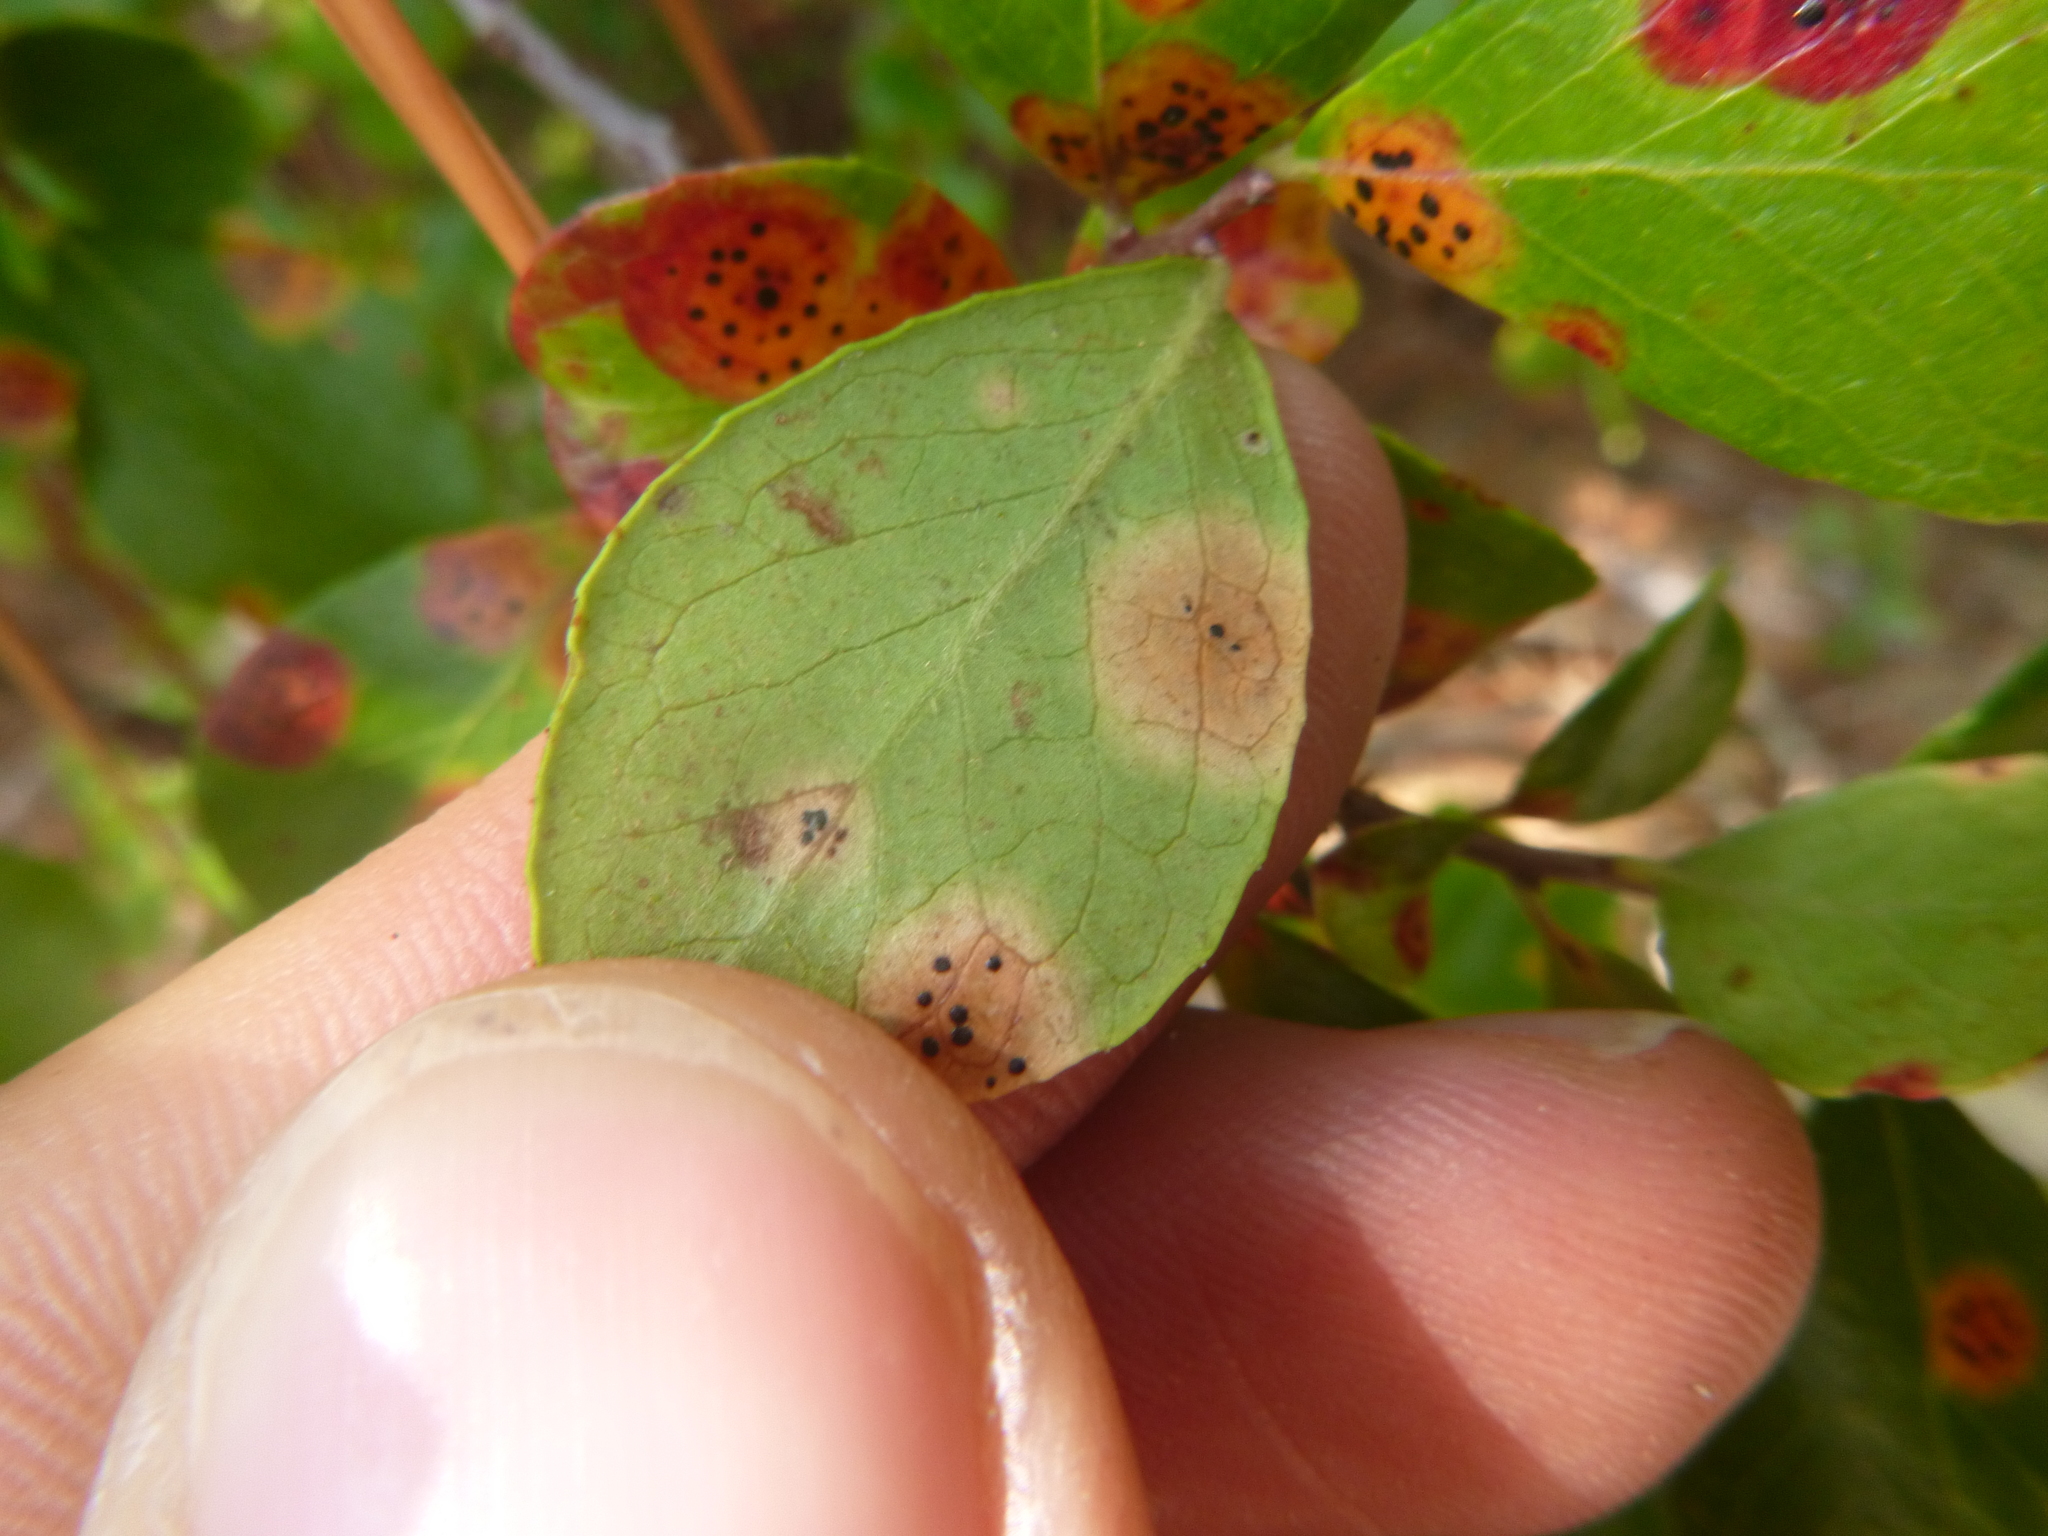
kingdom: Fungi
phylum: Ascomycota
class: Sordariomycetes
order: Phyllachorales
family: Phyllachoraceae
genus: Ophiodothella
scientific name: Ophiodothella angustissima
